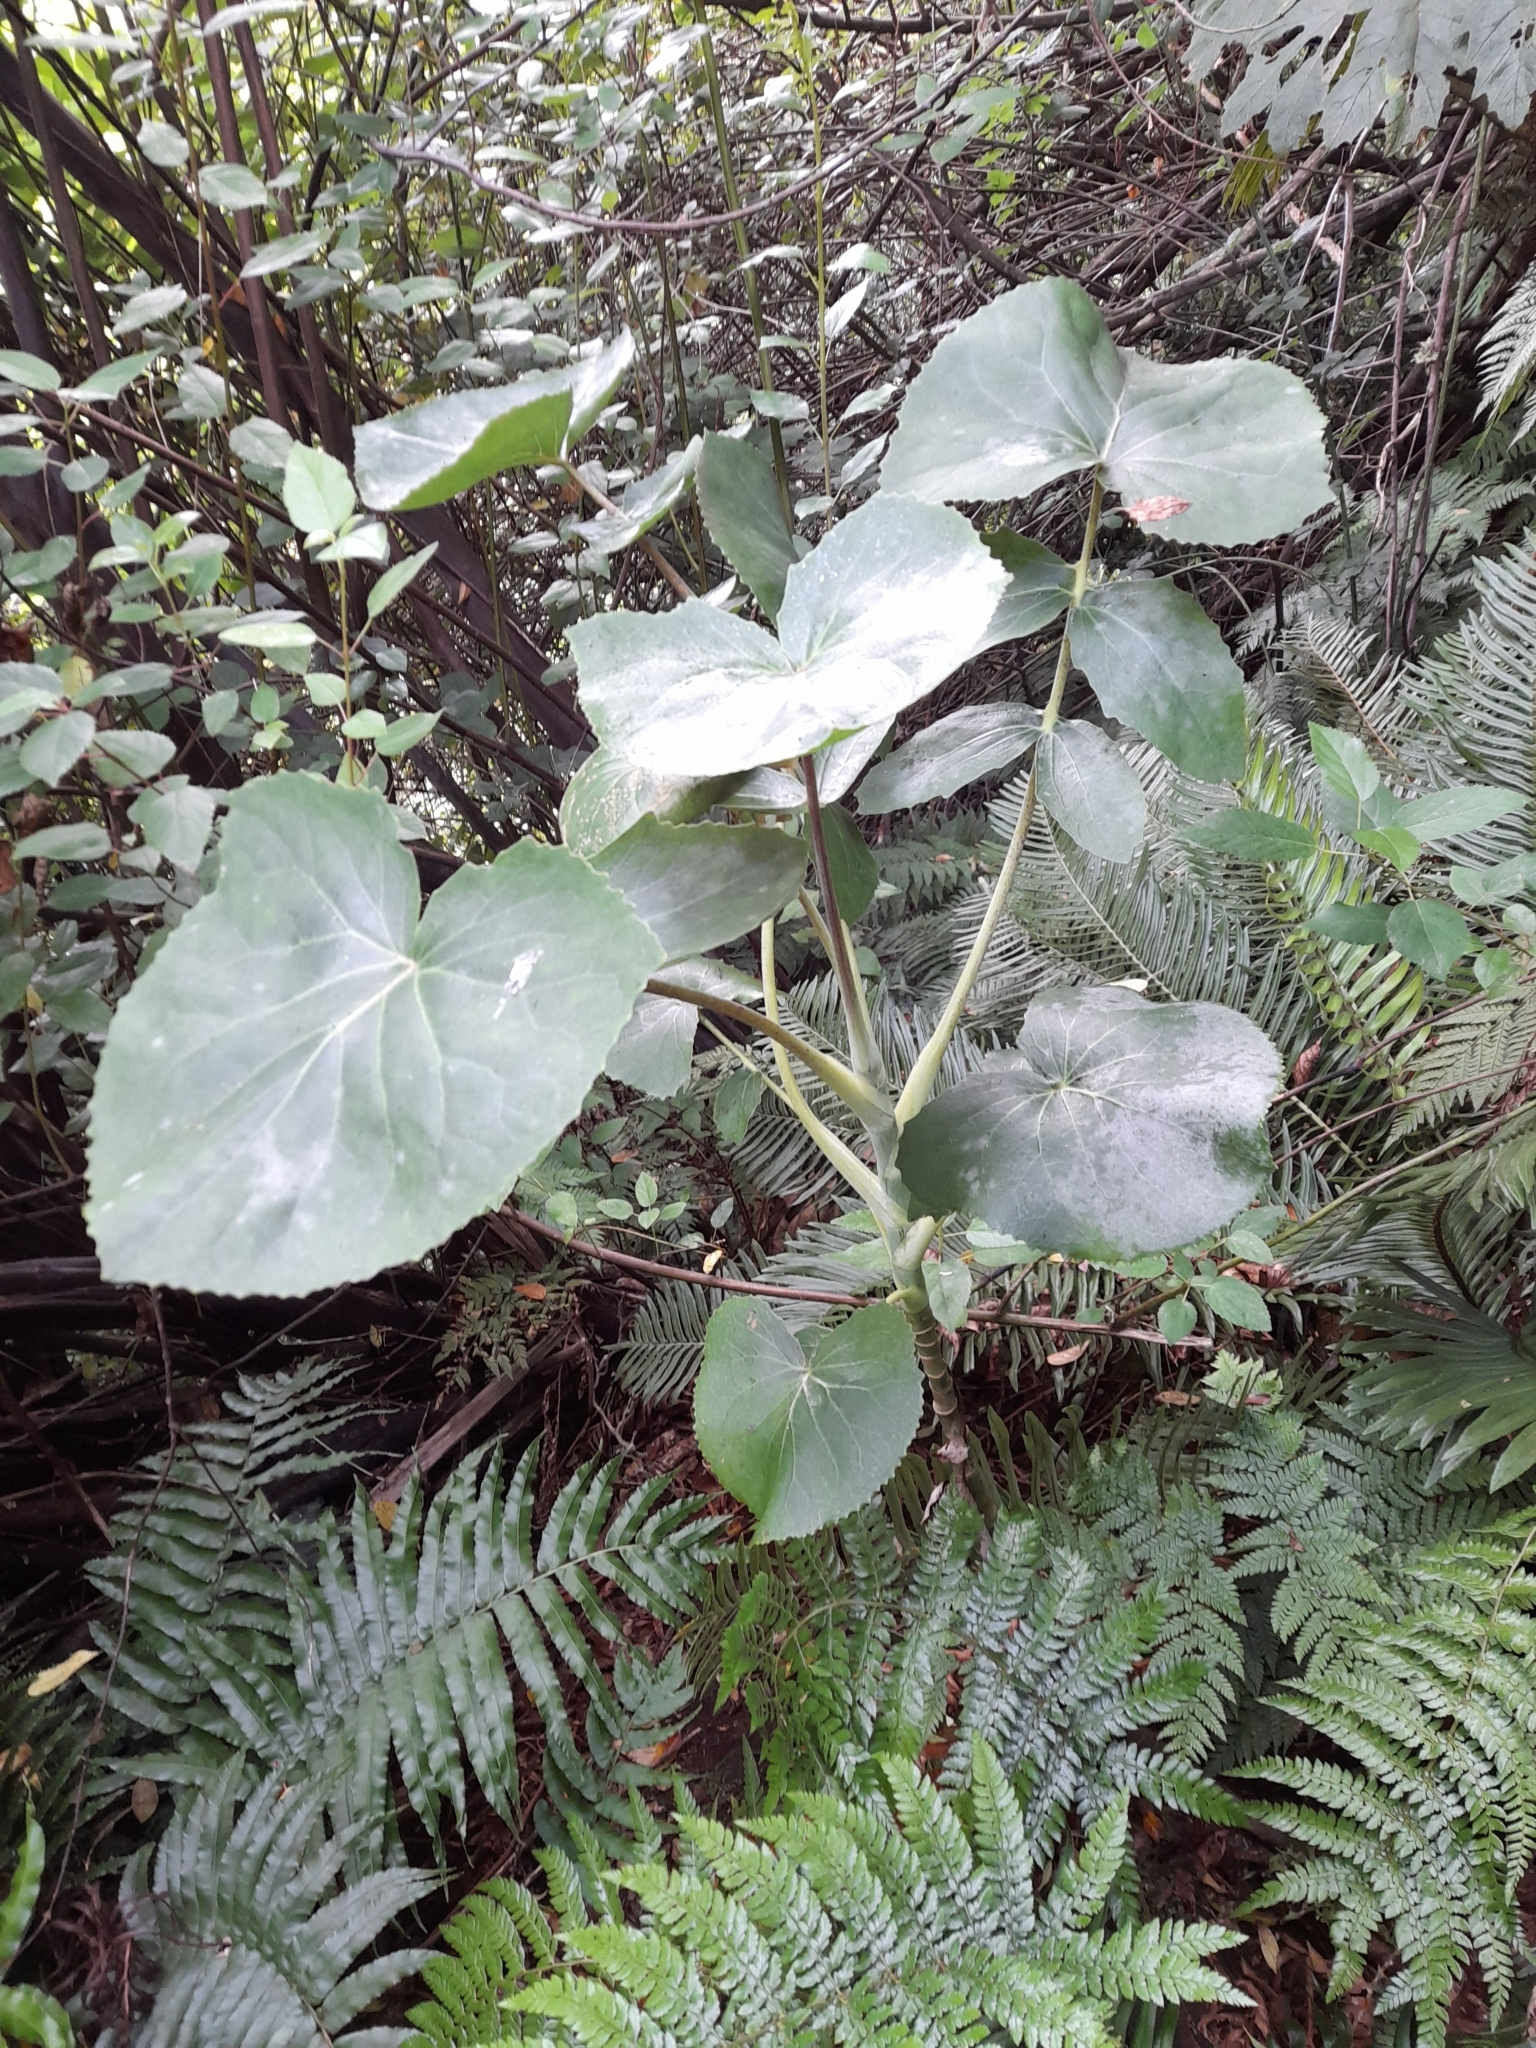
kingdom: Plantae
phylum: Tracheophyta
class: Magnoliopsida
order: Asterales
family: Asteraceae
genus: Sonchus
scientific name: Sonchus berteroanus
